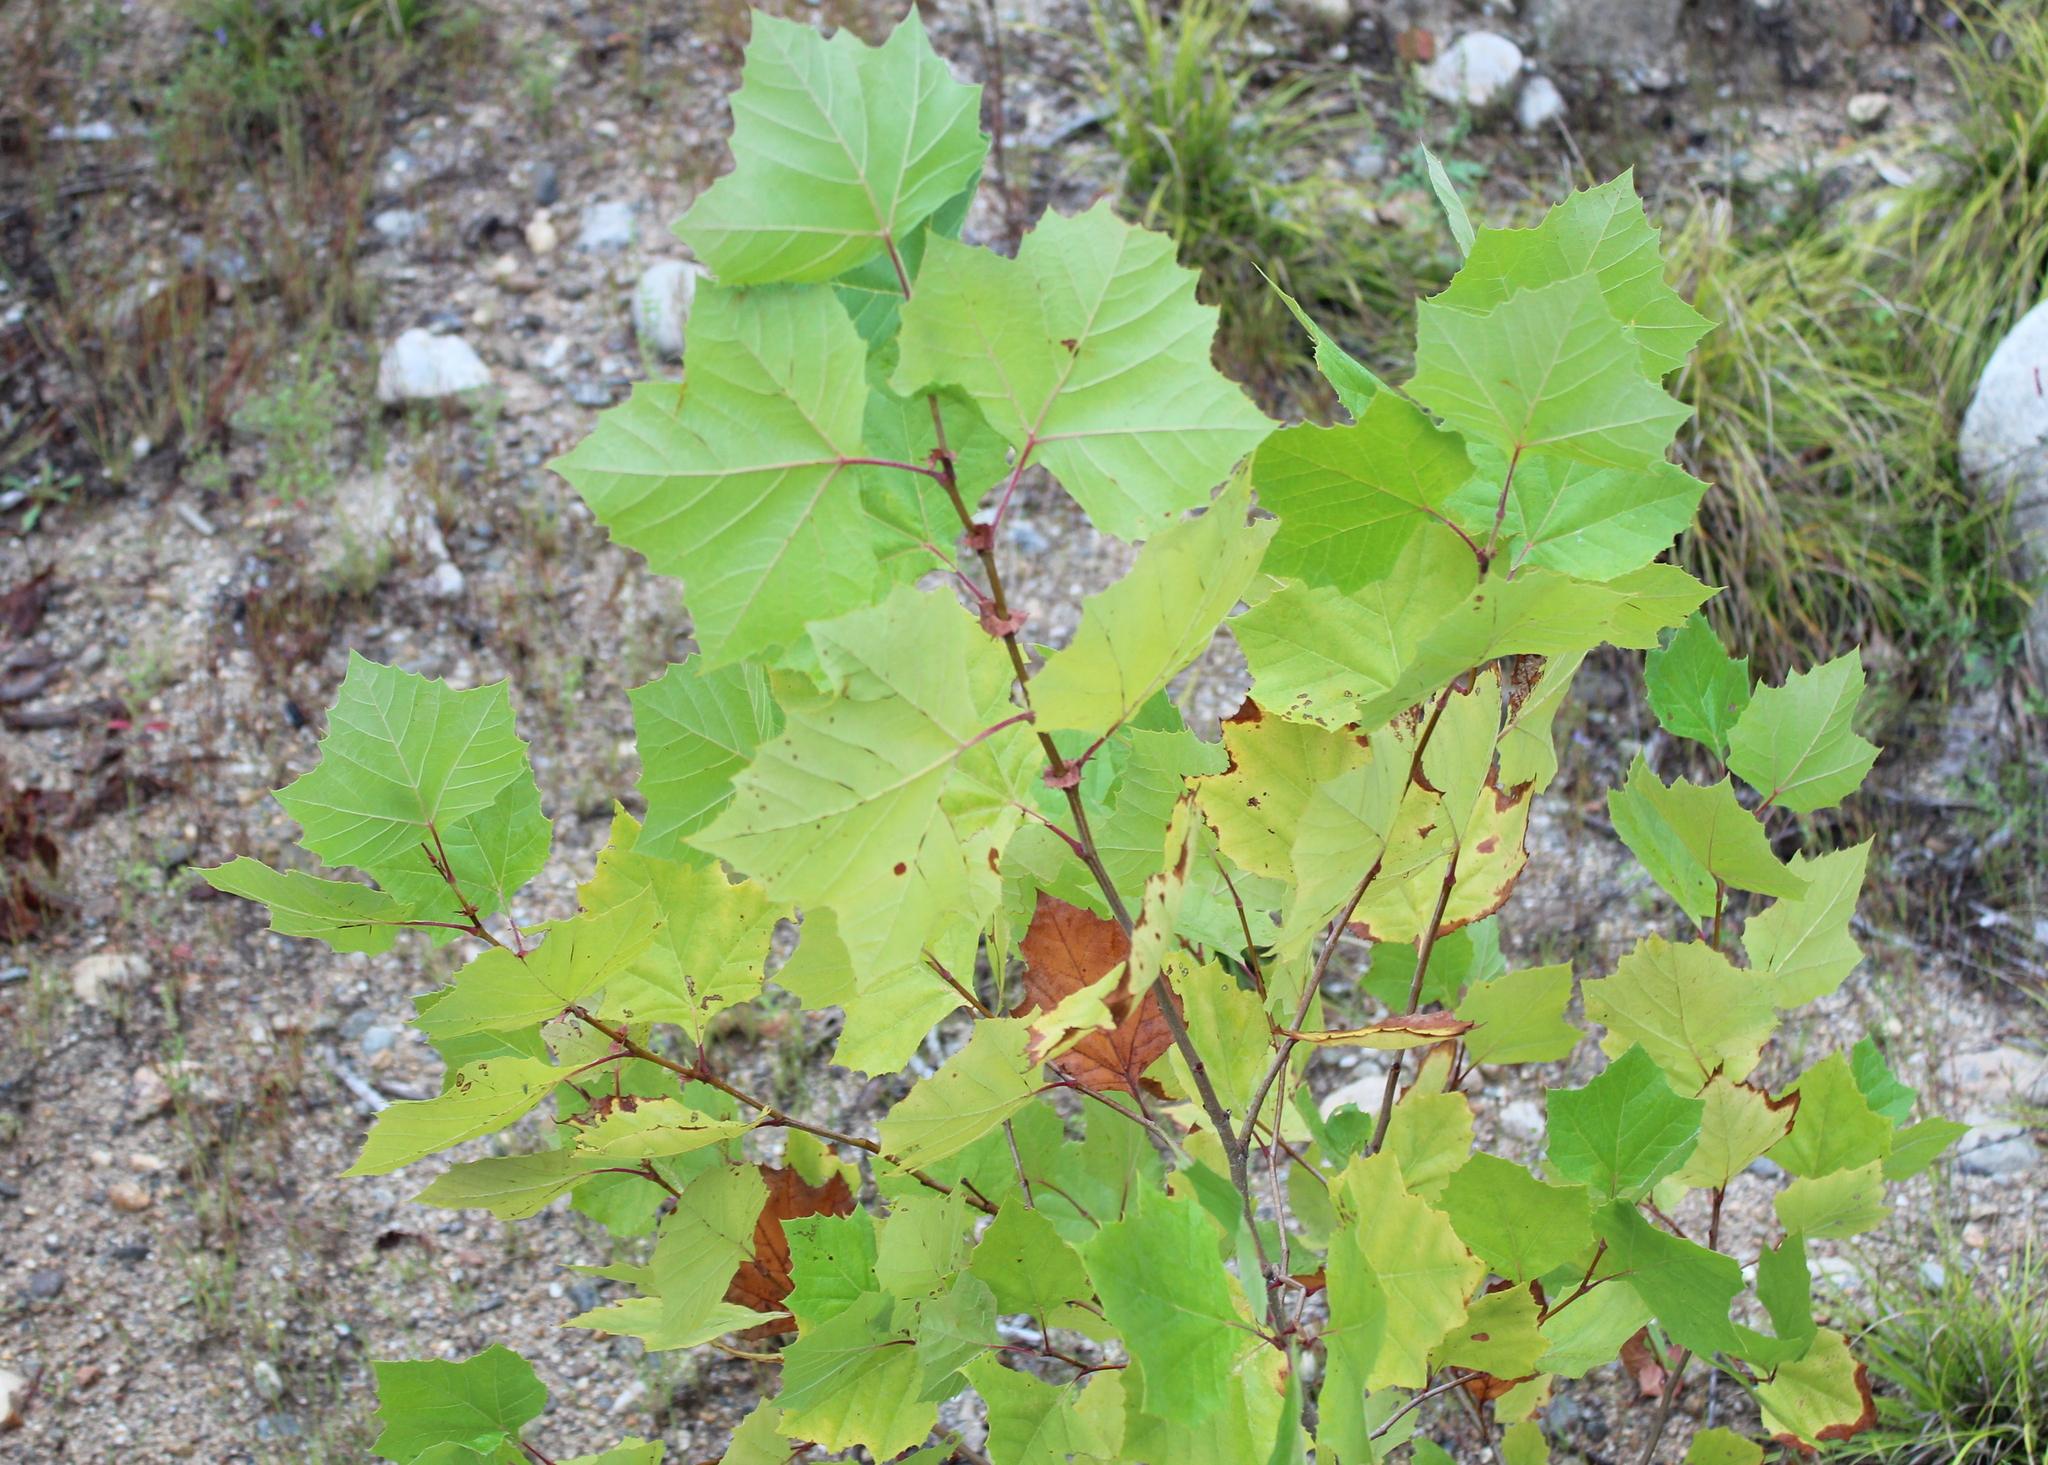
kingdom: Plantae
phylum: Tracheophyta
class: Magnoliopsida
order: Proteales
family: Platanaceae
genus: Platanus
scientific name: Platanus occidentalis
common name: American sycamore
